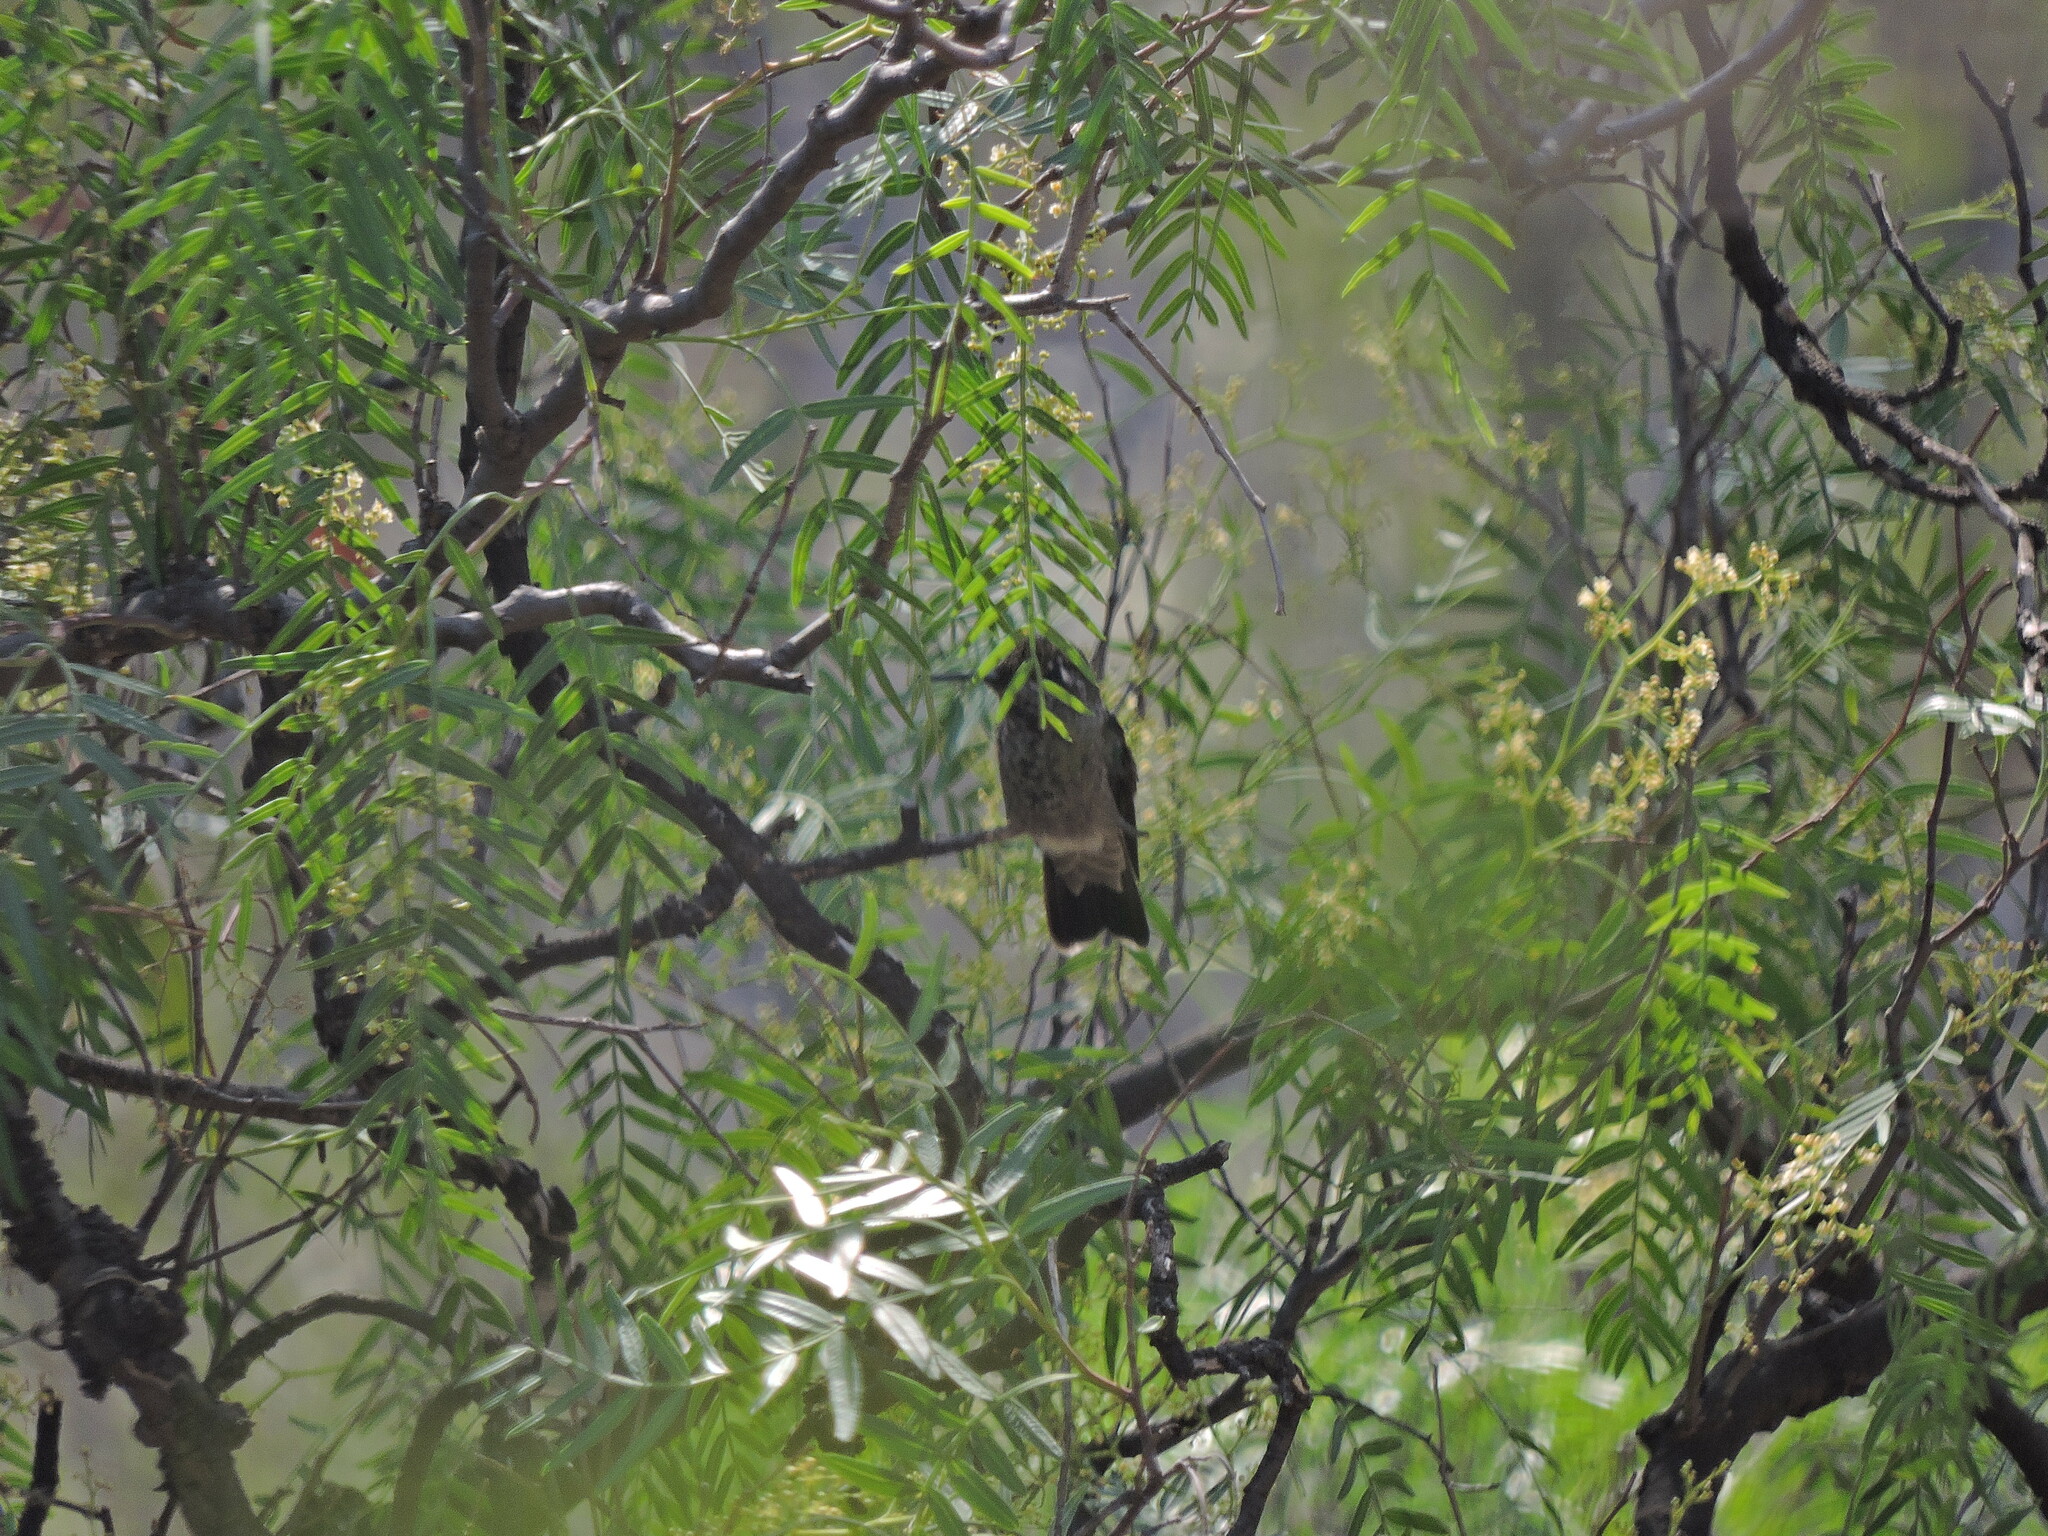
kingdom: Animalia
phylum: Chordata
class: Aves
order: Apodiformes
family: Trochilidae
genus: Eugenes
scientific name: Eugenes fulgens
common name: Magnificent hummingbird
